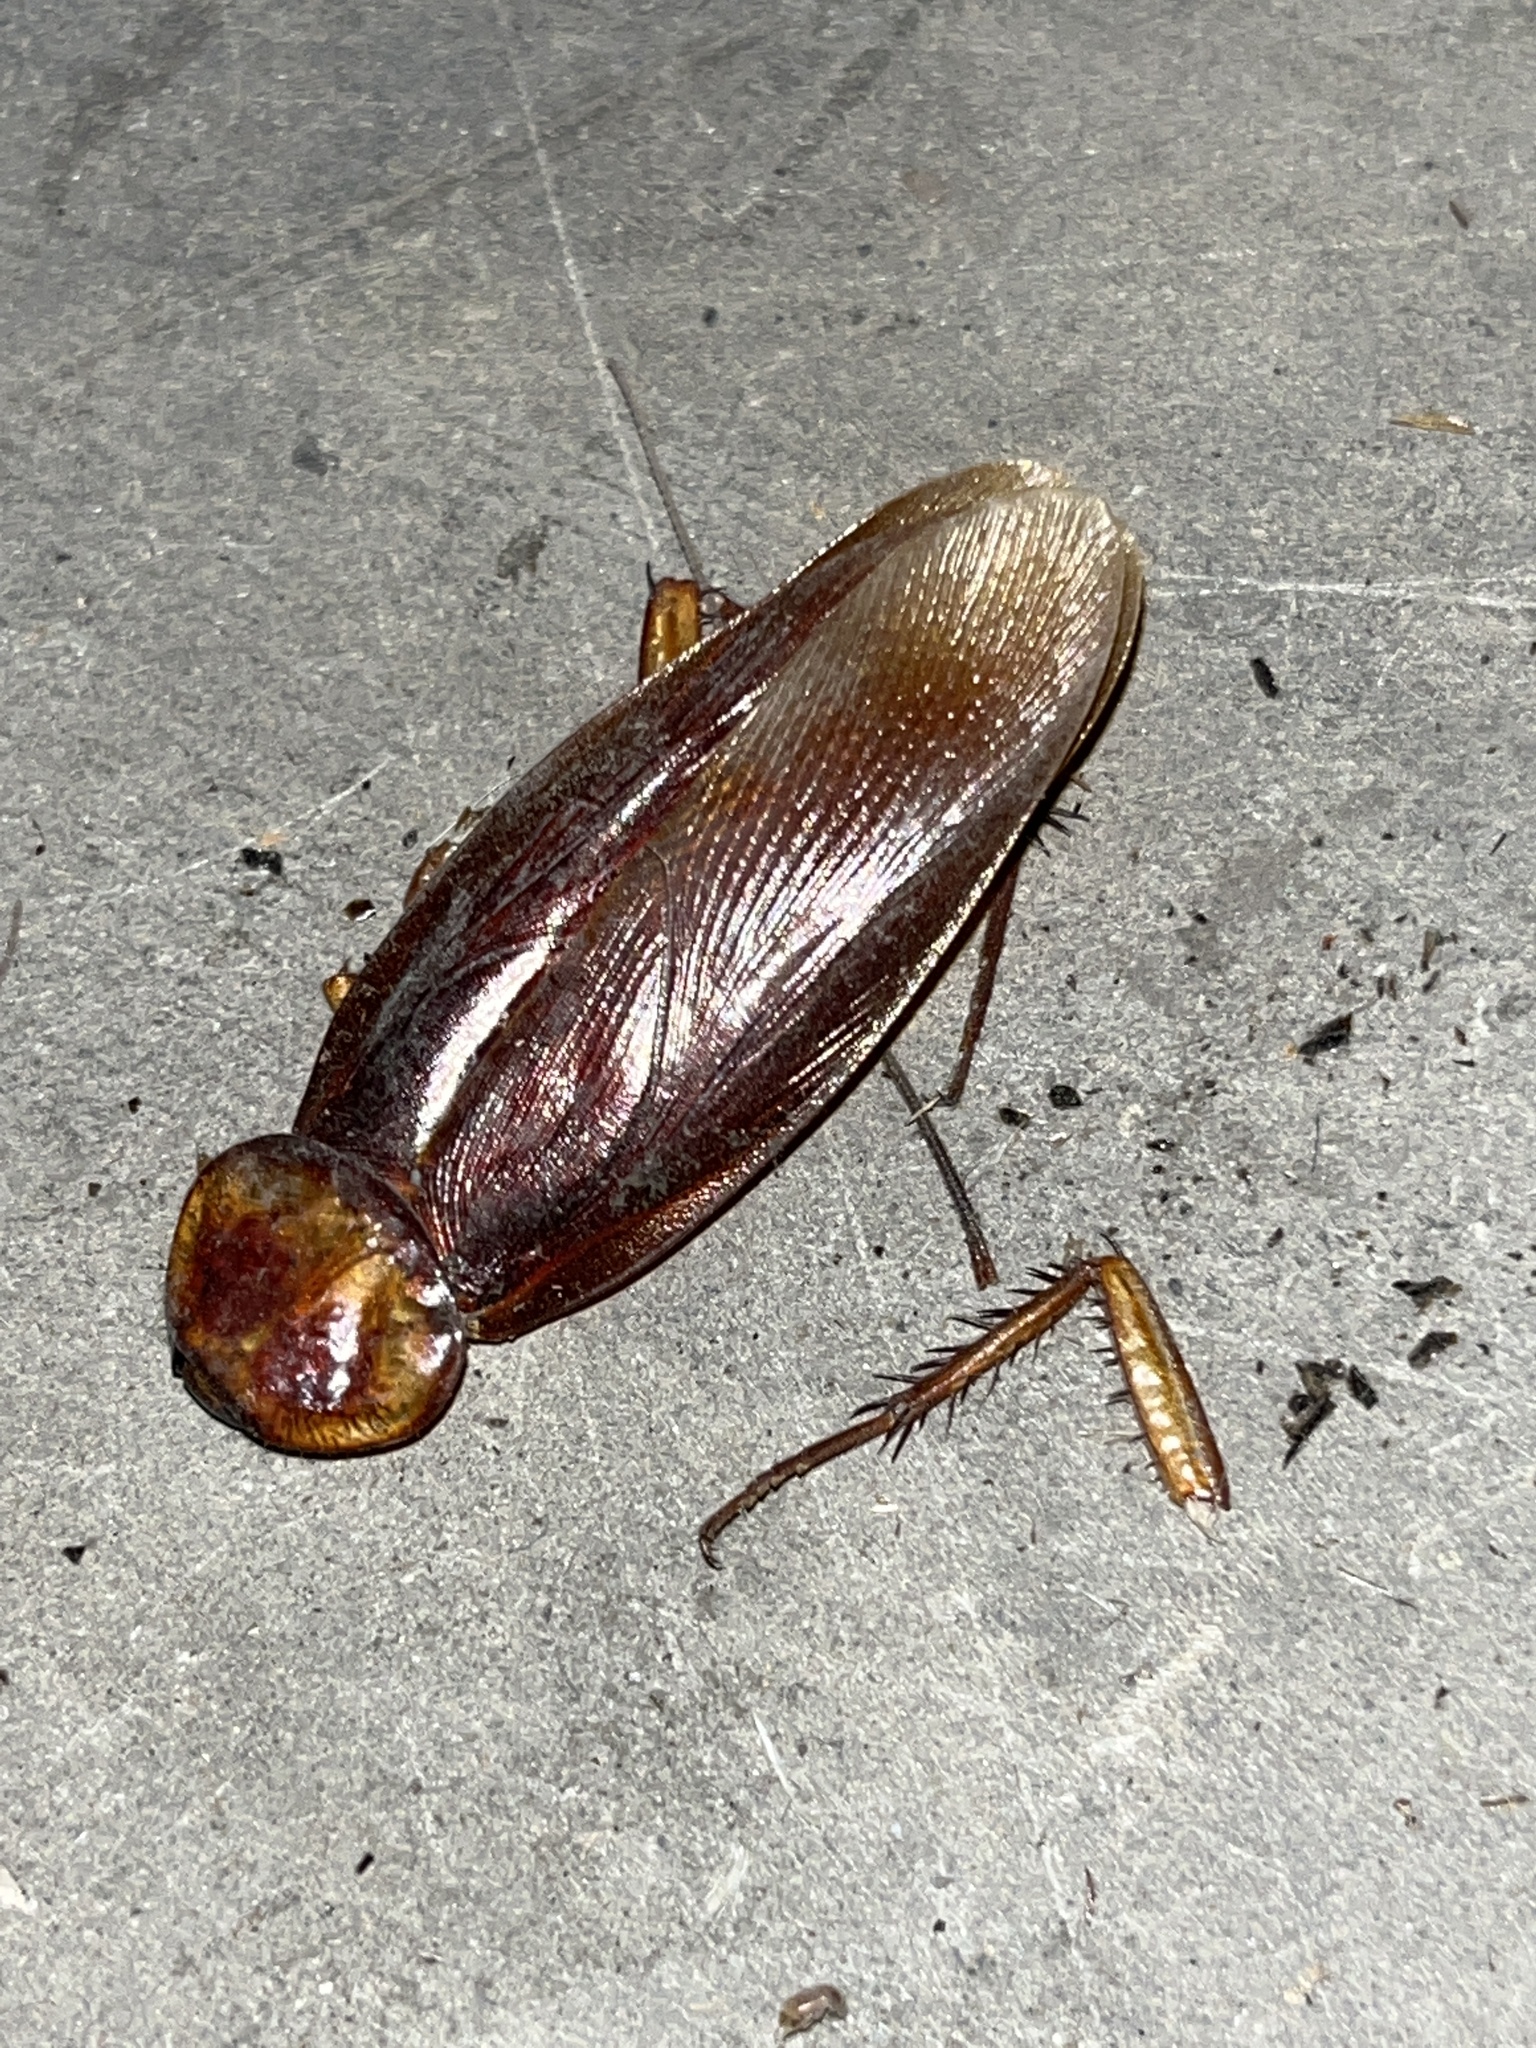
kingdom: Animalia
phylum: Arthropoda
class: Insecta
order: Blattodea
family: Blattidae
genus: Periplaneta
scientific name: Periplaneta americana
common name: American cockroach
